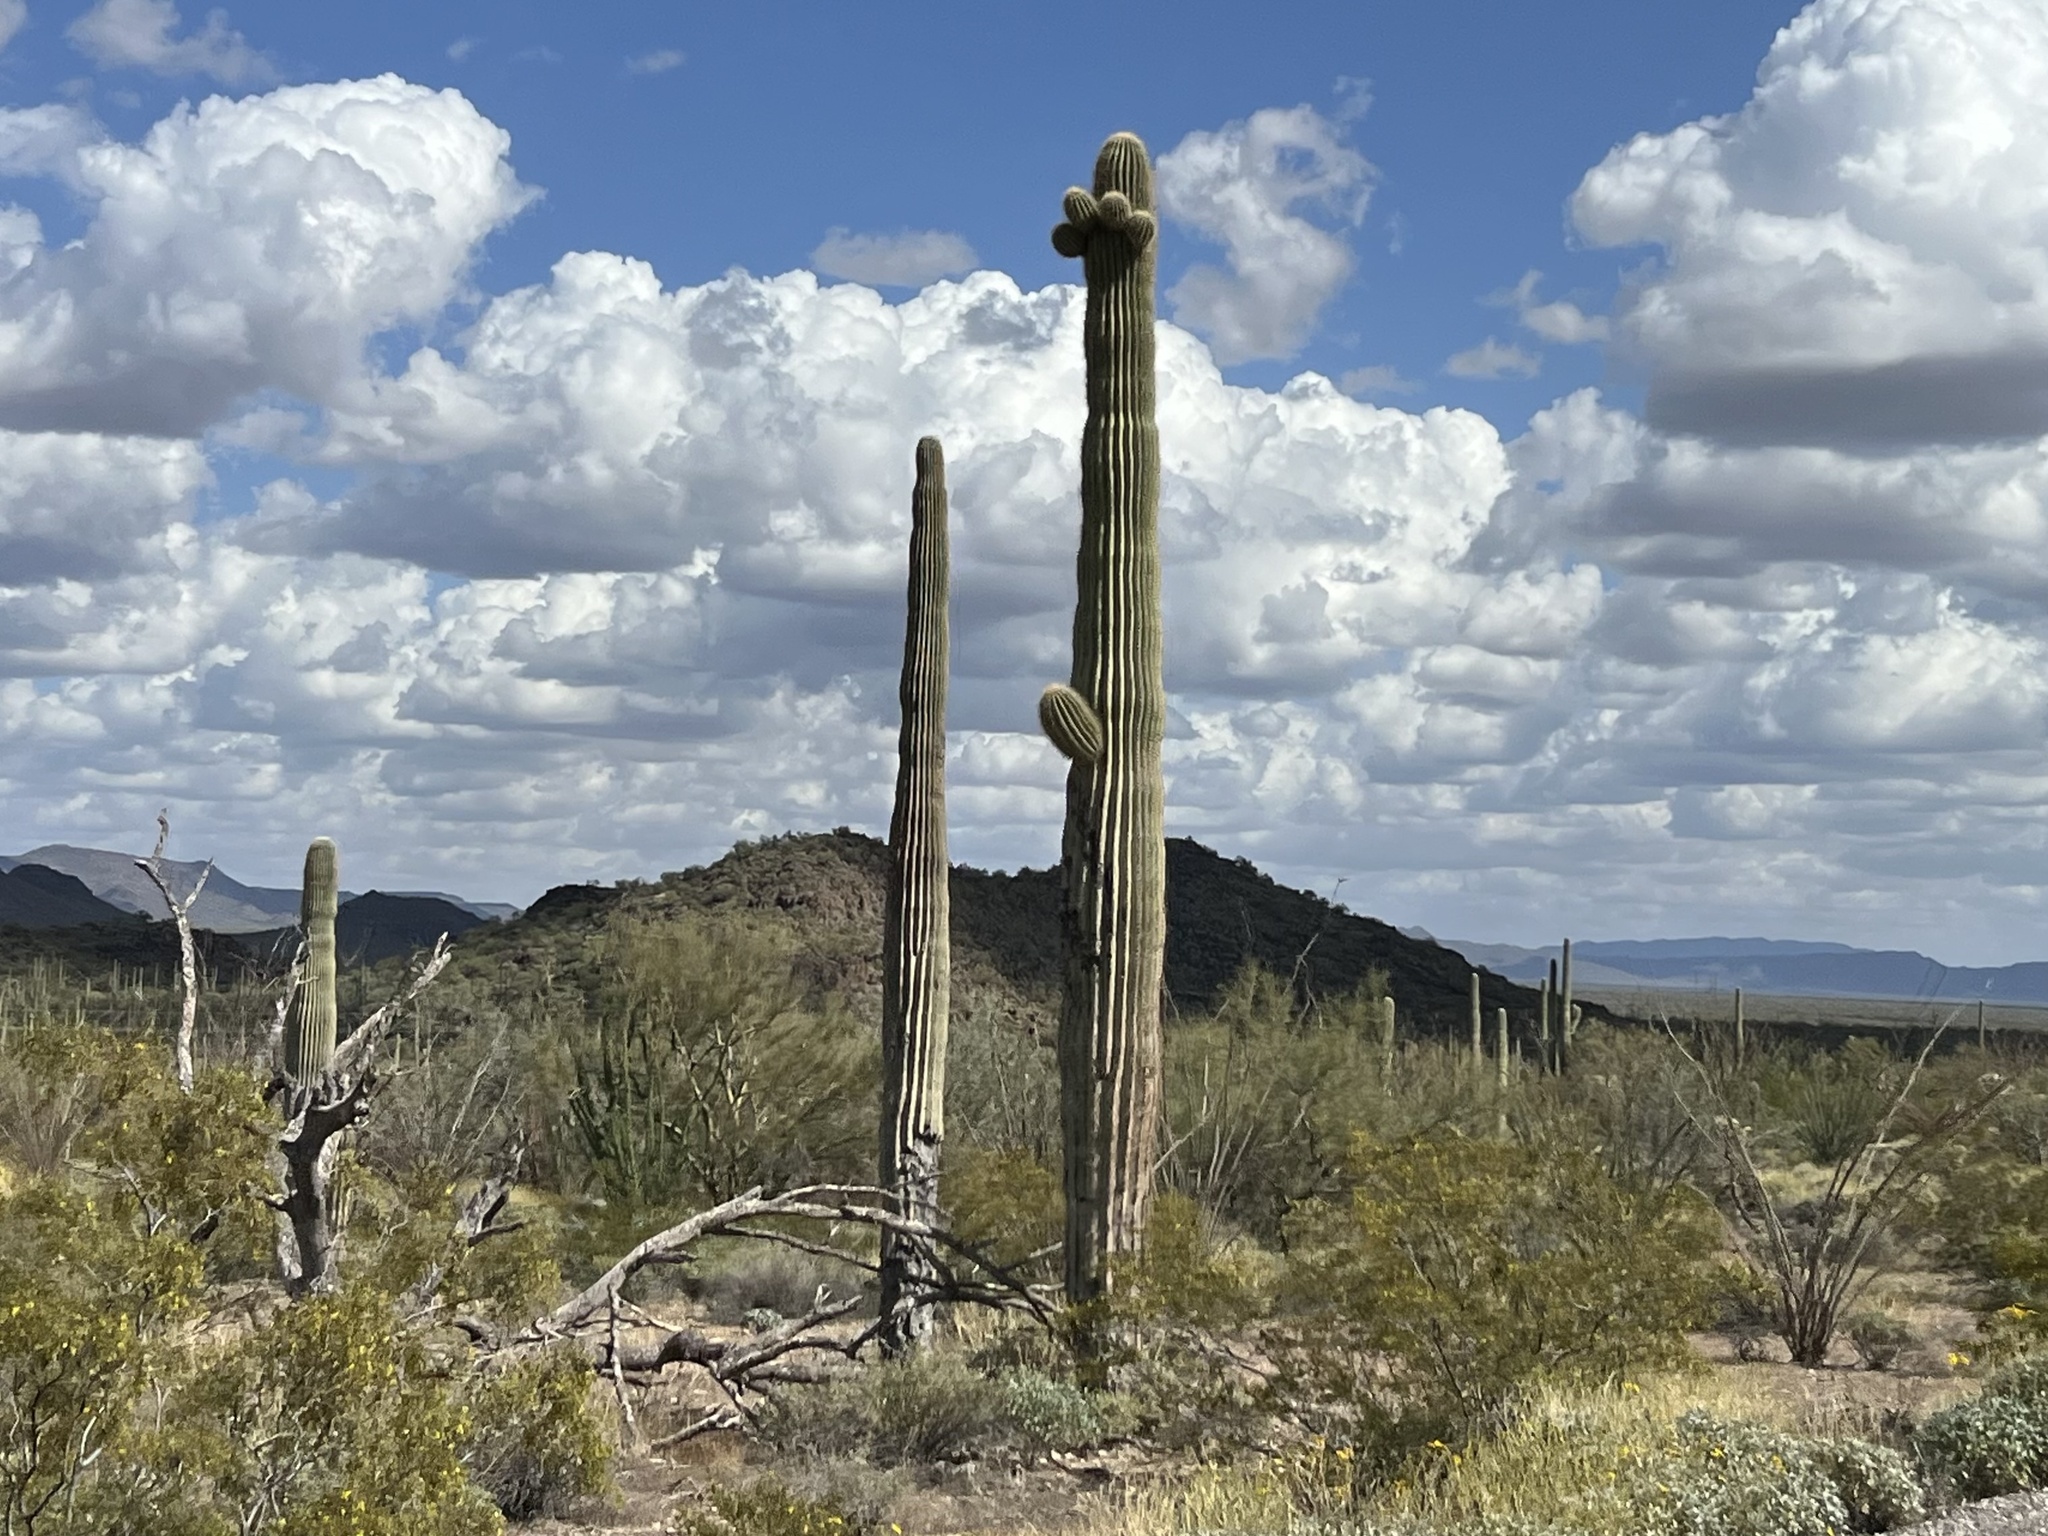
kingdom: Plantae
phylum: Tracheophyta
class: Magnoliopsida
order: Caryophyllales
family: Cactaceae
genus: Carnegiea
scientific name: Carnegiea gigantea
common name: Saguaro
